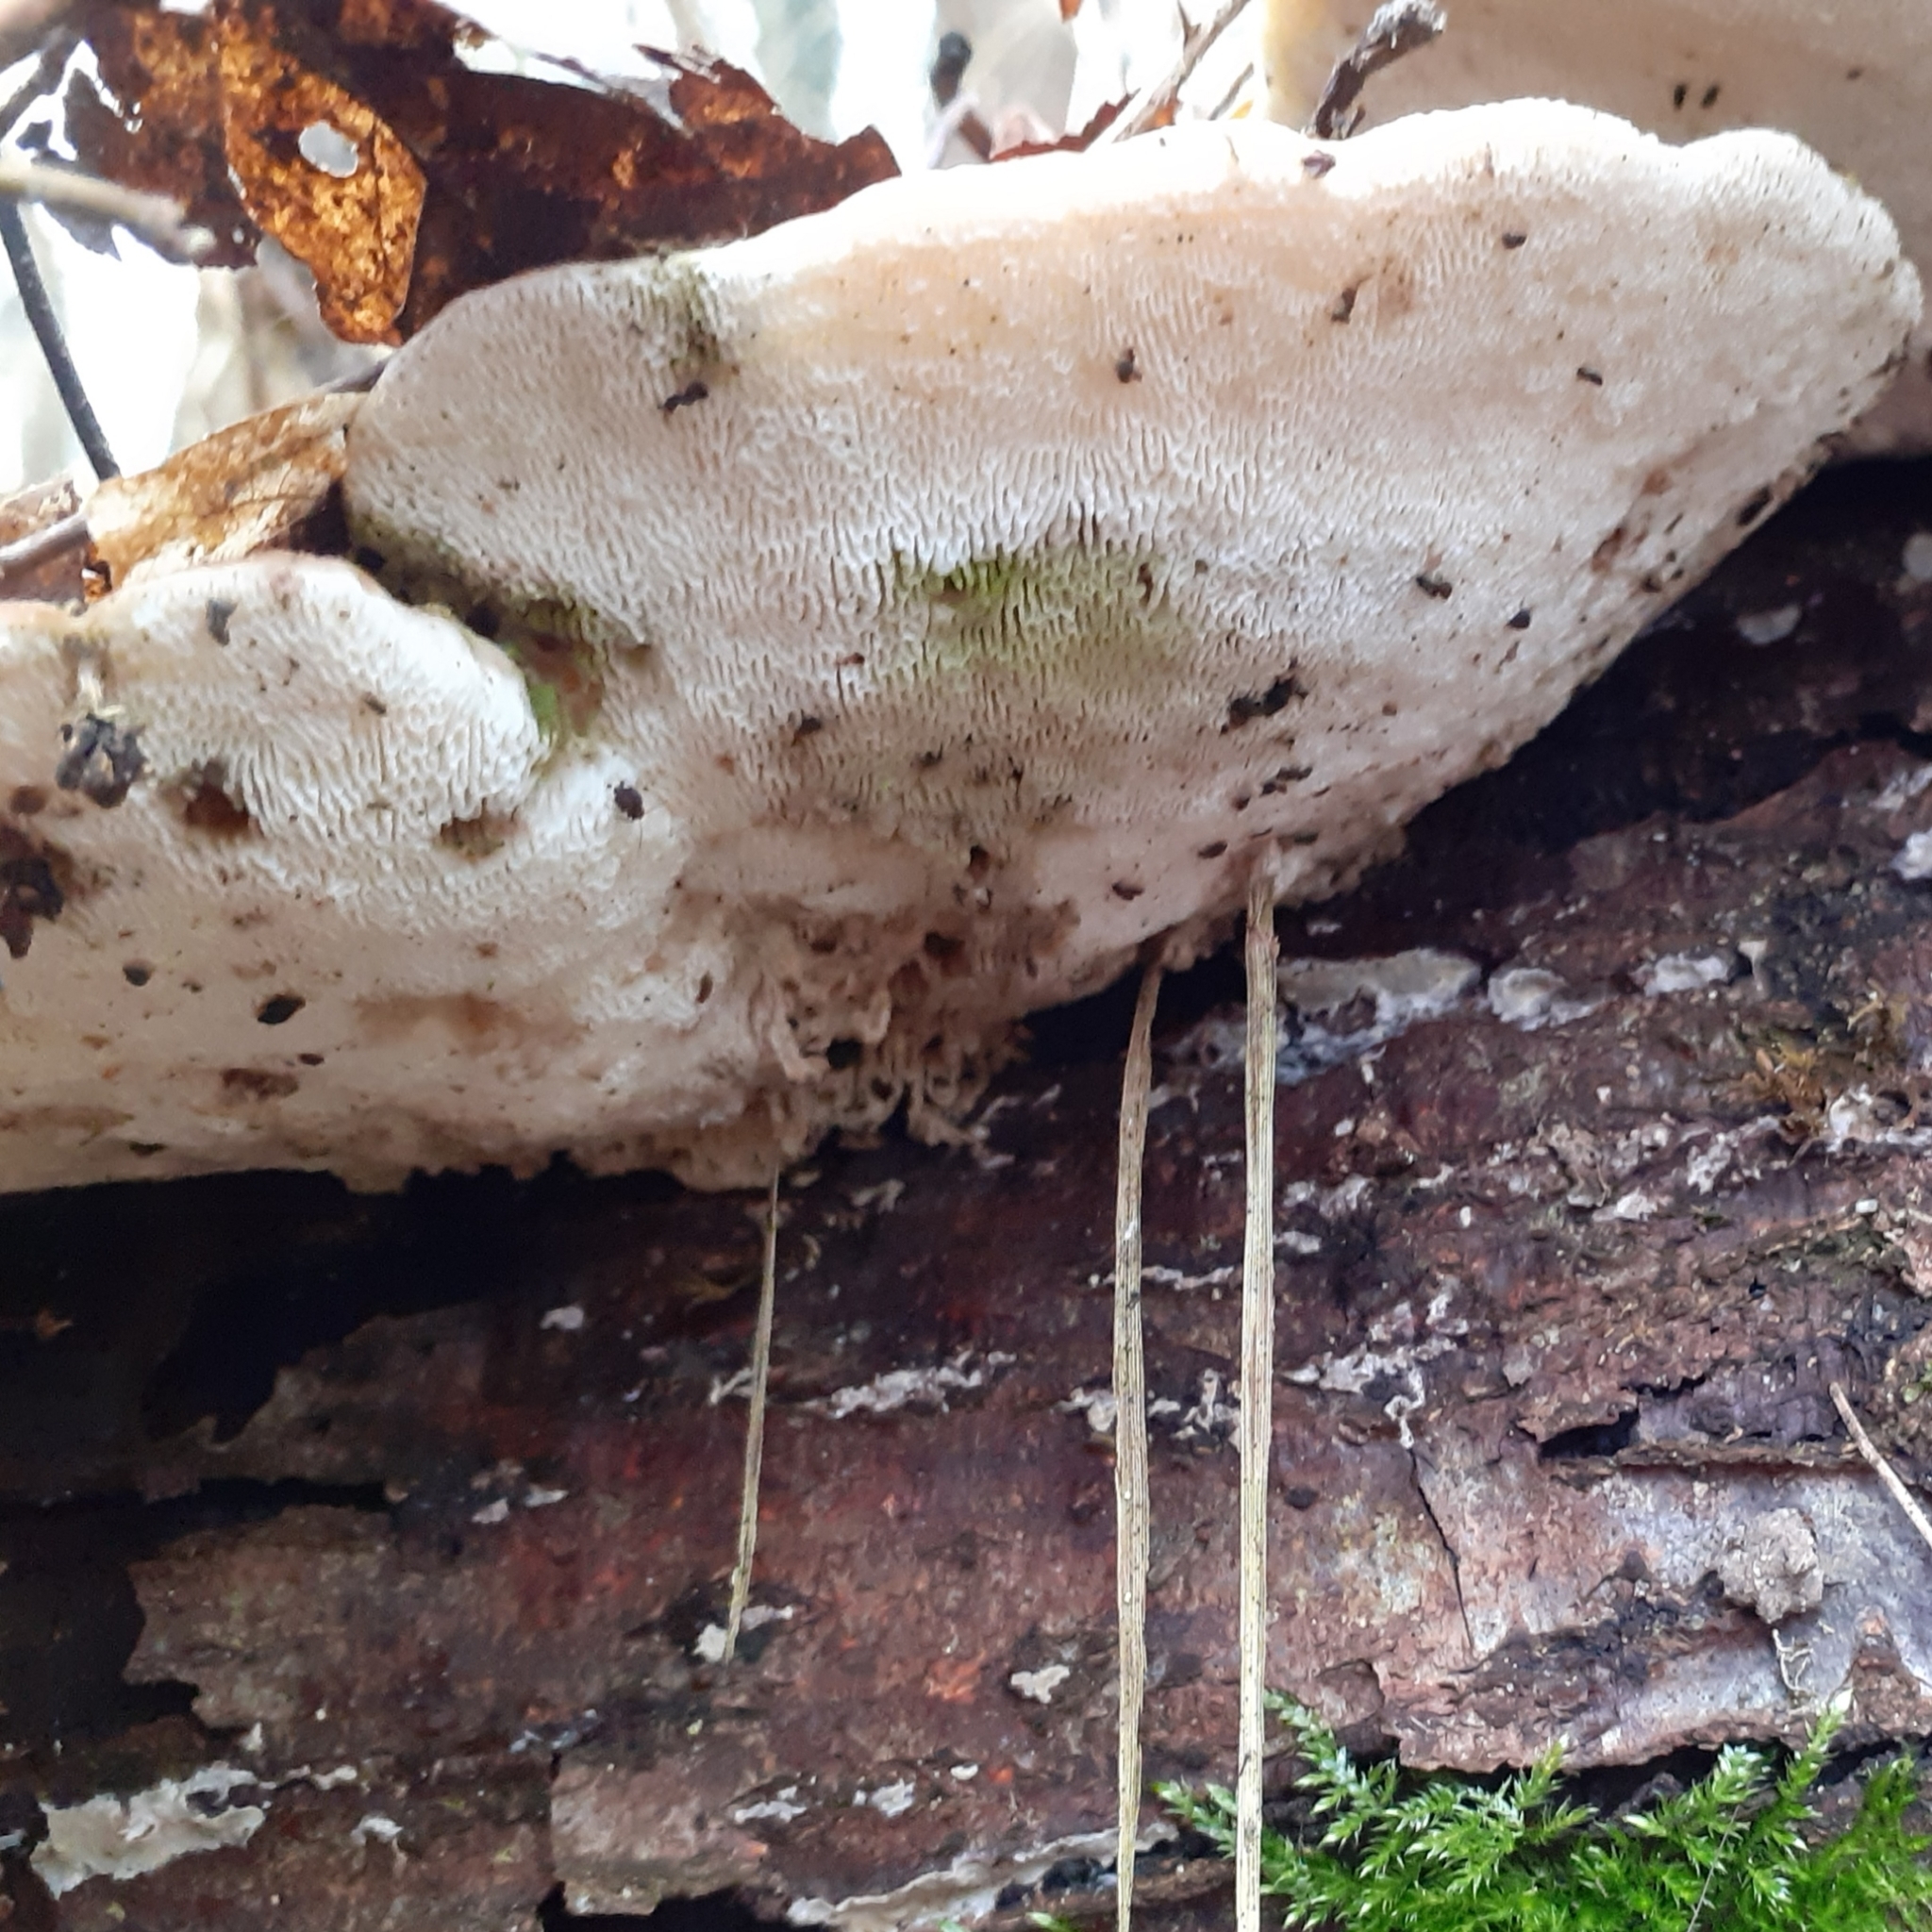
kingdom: Fungi
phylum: Basidiomycota
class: Agaricomycetes
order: Polyporales
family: Polyporaceae
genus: Trametes
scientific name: Trametes gibbosa
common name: Lumpy bracket
